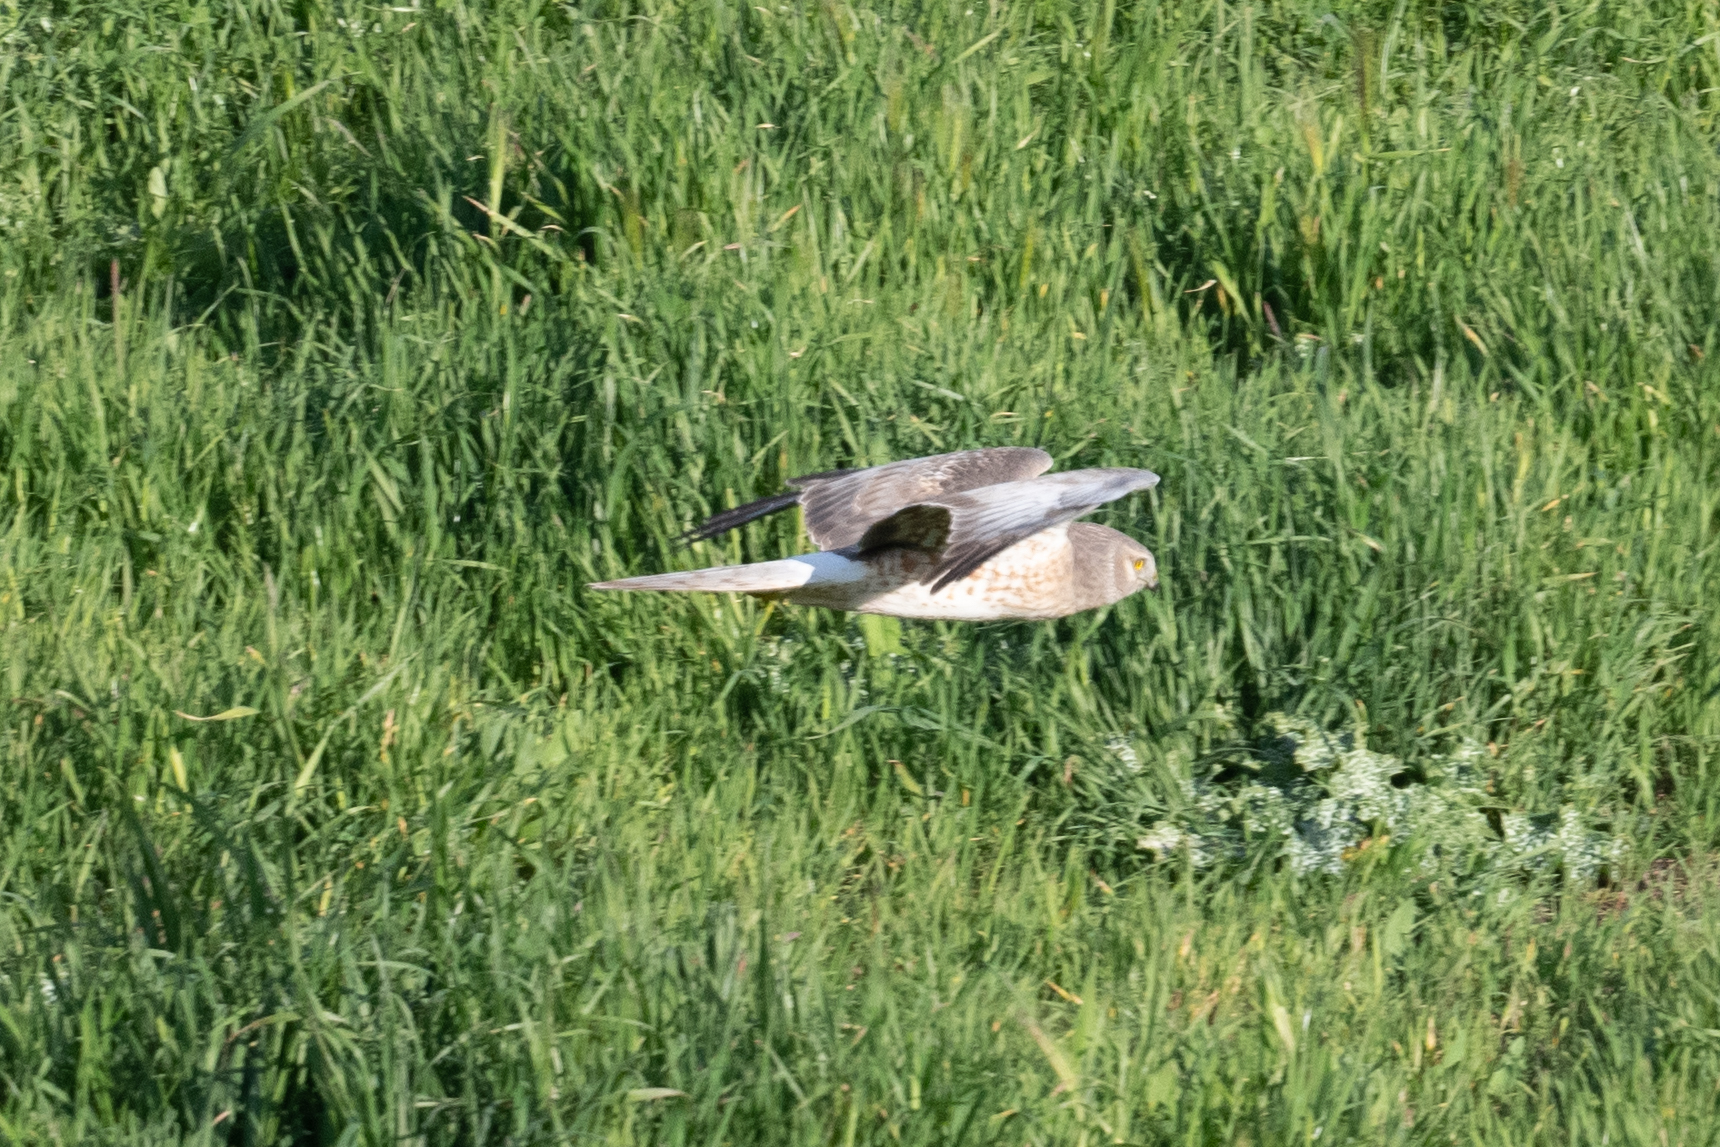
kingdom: Animalia
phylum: Chordata
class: Aves
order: Accipitriformes
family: Accipitridae
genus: Circus
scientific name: Circus cyaneus
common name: Hen harrier
